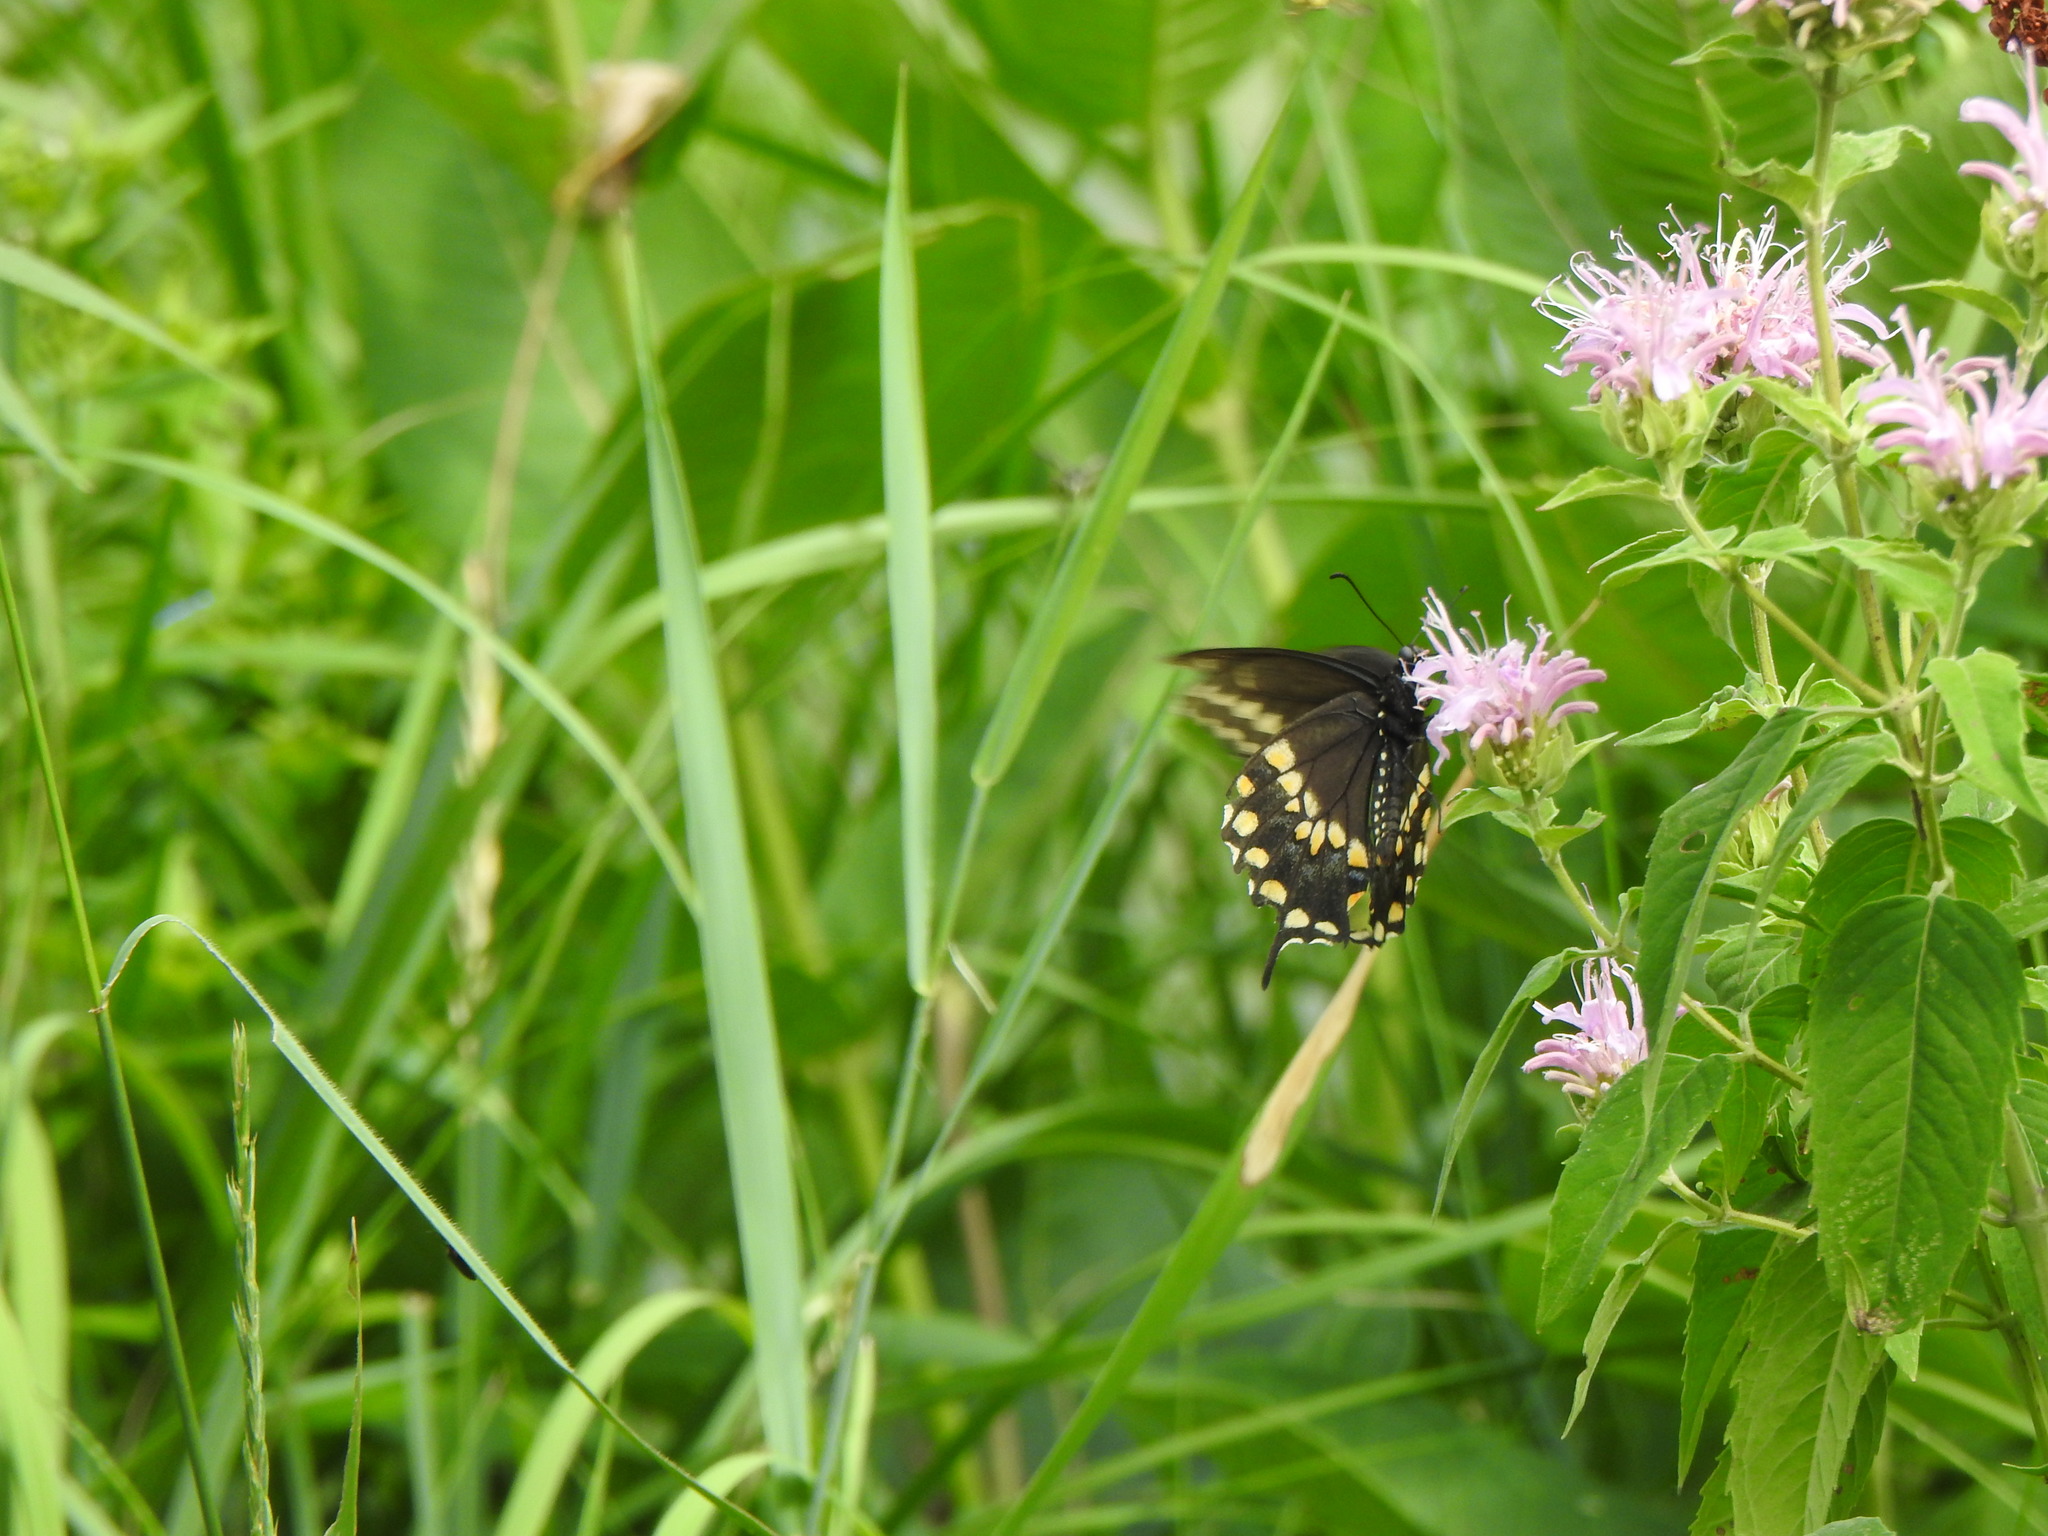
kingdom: Animalia
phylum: Arthropoda
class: Insecta
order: Lepidoptera
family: Papilionidae
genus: Papilio
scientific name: Papilio polyxenes
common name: Black swallowtail
